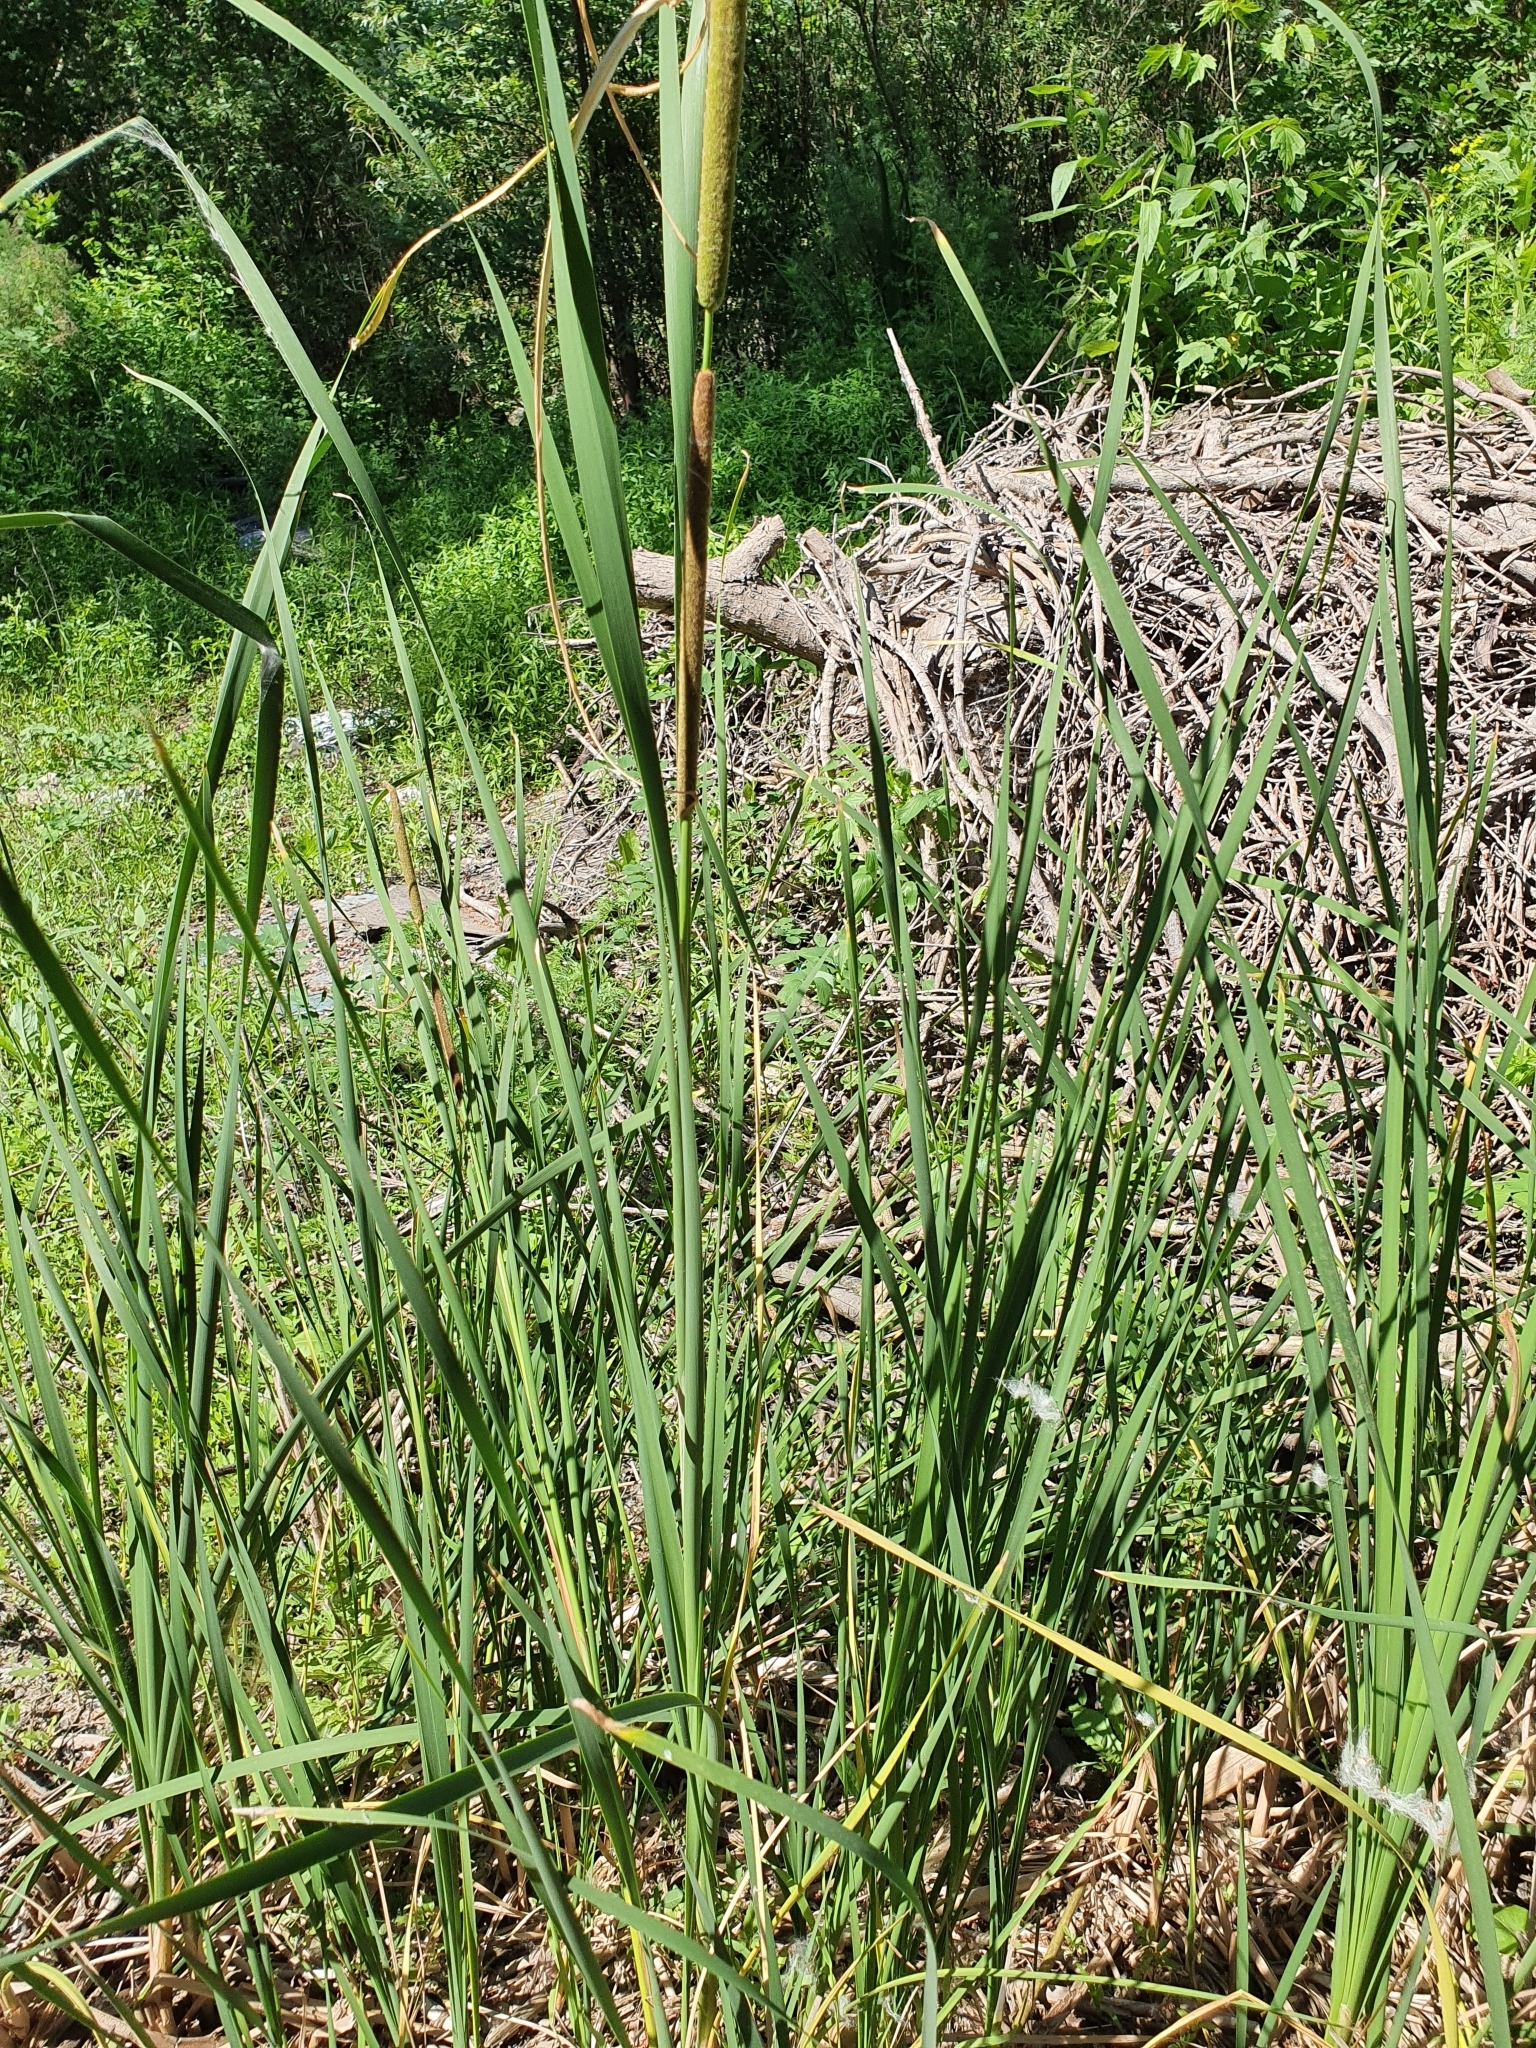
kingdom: Plantae
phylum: Tracheophyta
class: Liliopsida
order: Poales
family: Typhaceae
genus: Typha
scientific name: Typha angustifolia
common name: Lesser bulrush
